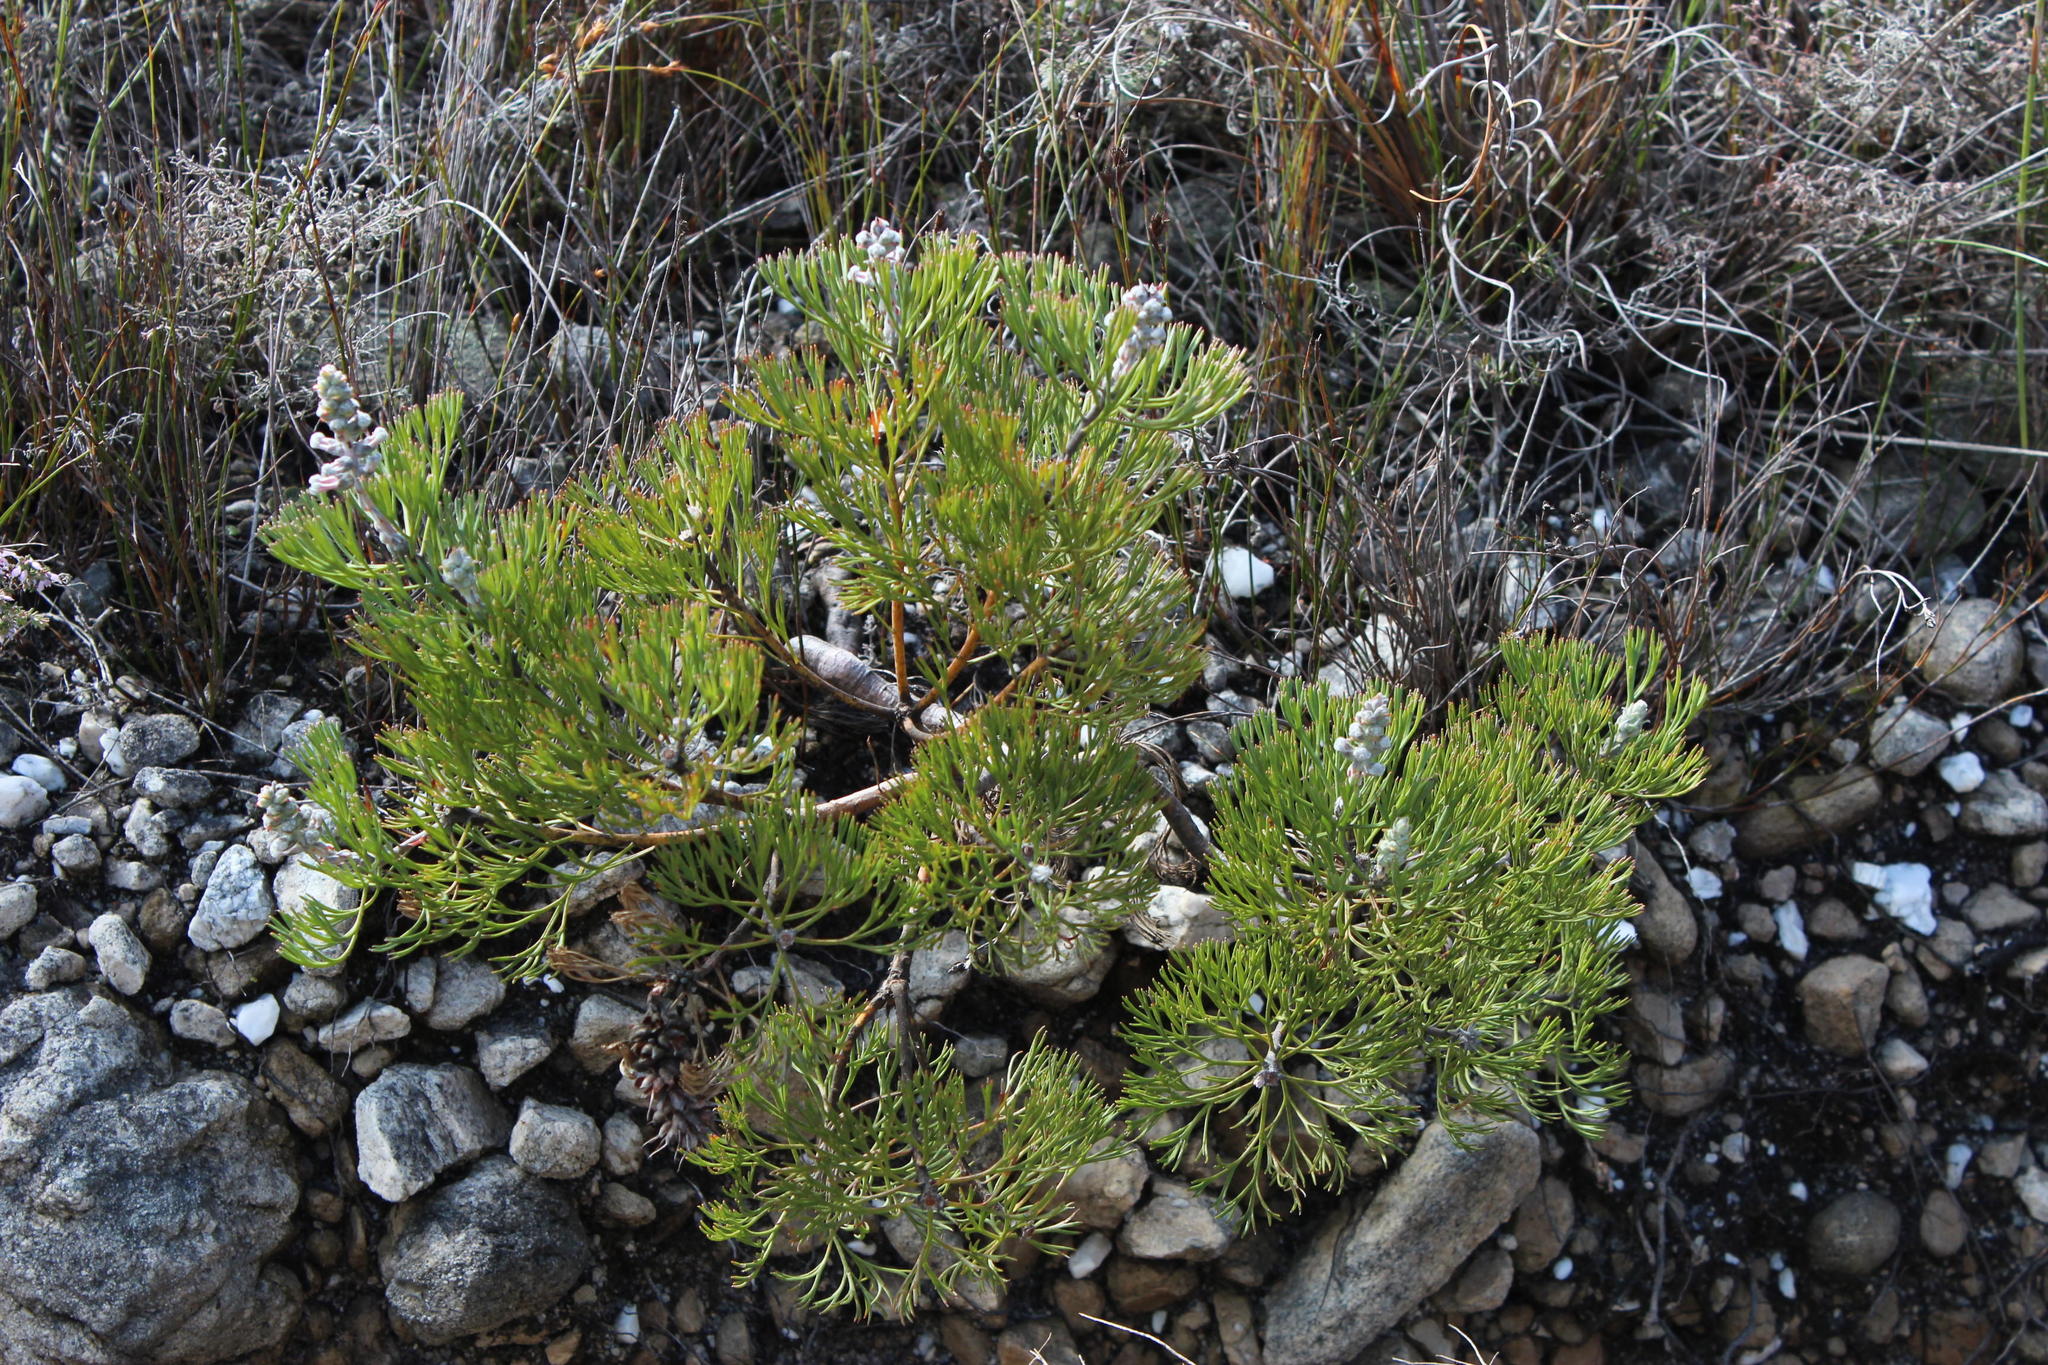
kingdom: Plantae
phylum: Tracheophyta
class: Magnoliopsida
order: Proteales
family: Proteaceae
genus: Paranomus
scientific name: Paranomus bolusii
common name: Overberg sceptre
